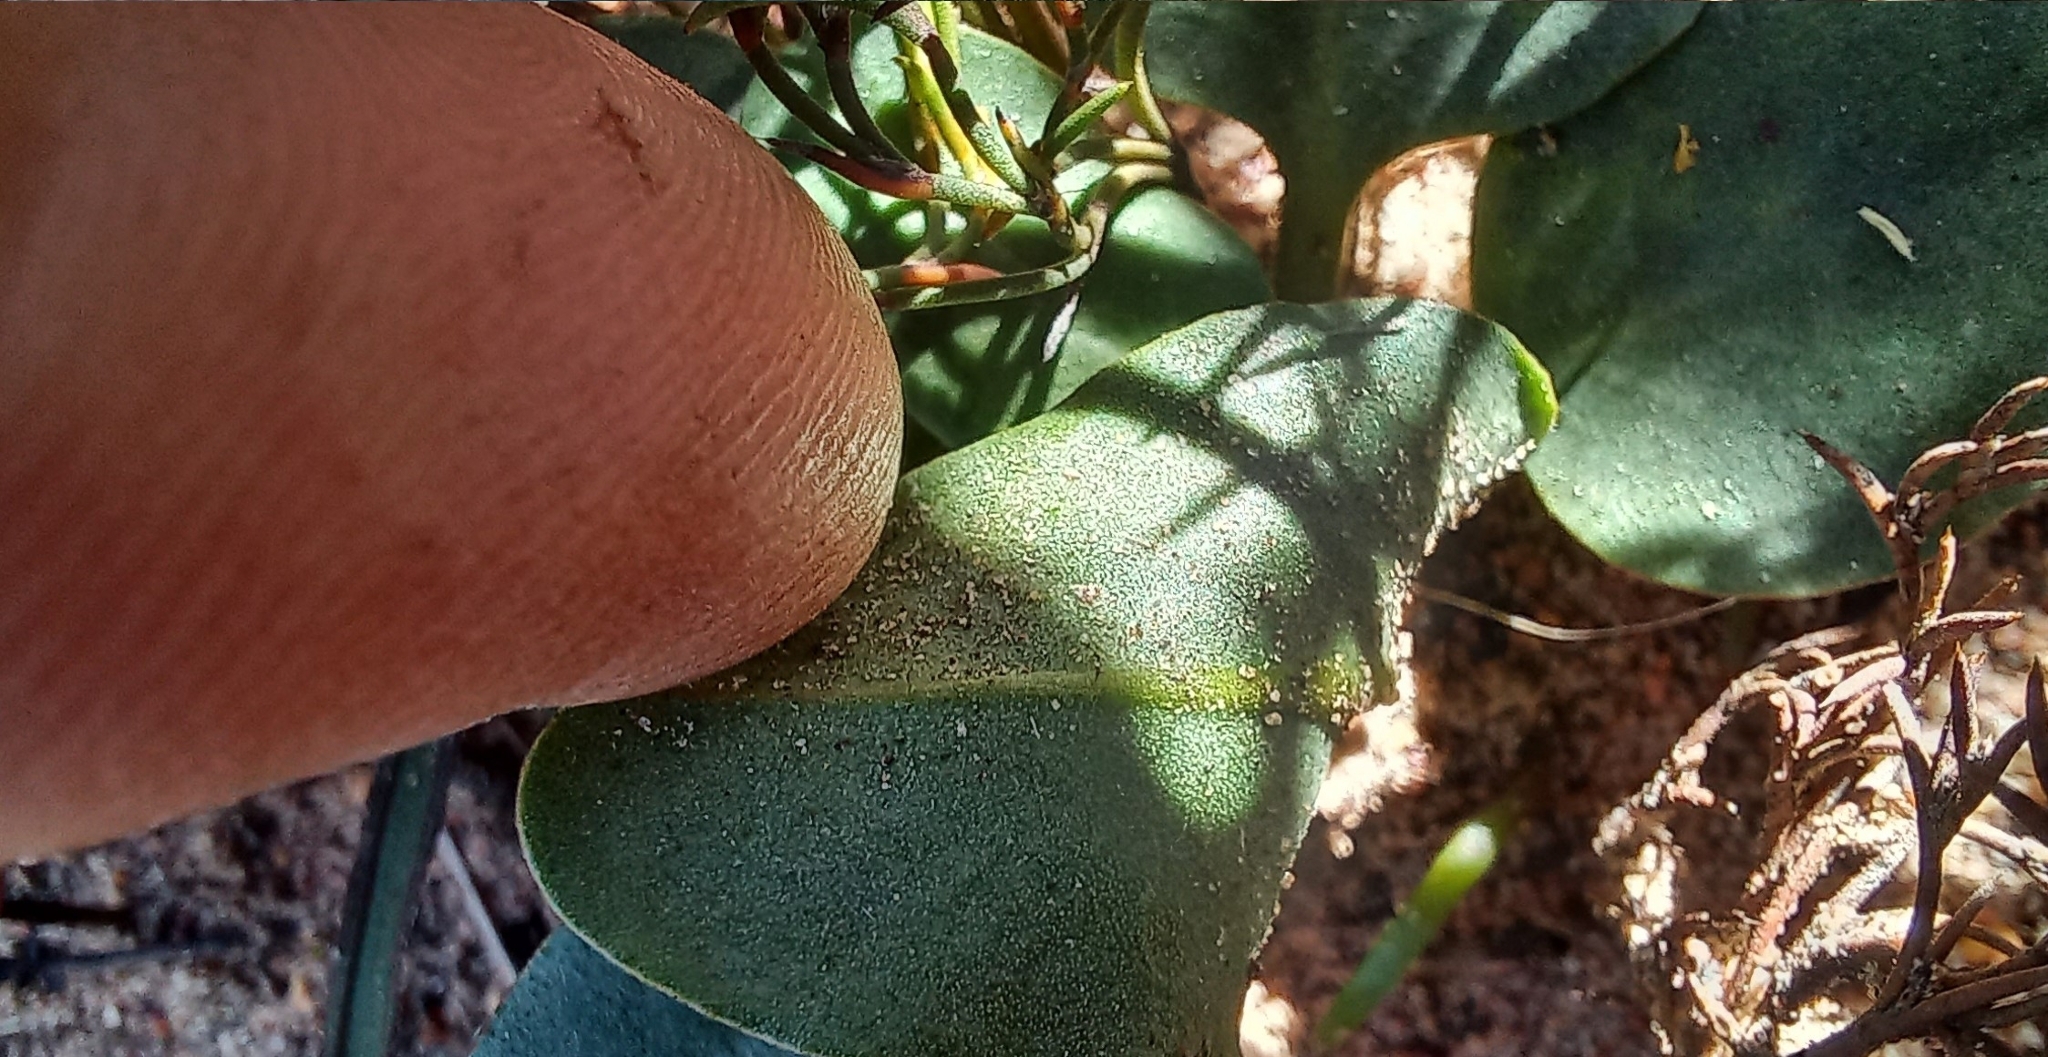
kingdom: Plantae
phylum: Tracheophyta
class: Magnoliopsida
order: Malpighiales
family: Euphorbiaceae
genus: Euphorbia
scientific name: Euphorbia tuberosa
